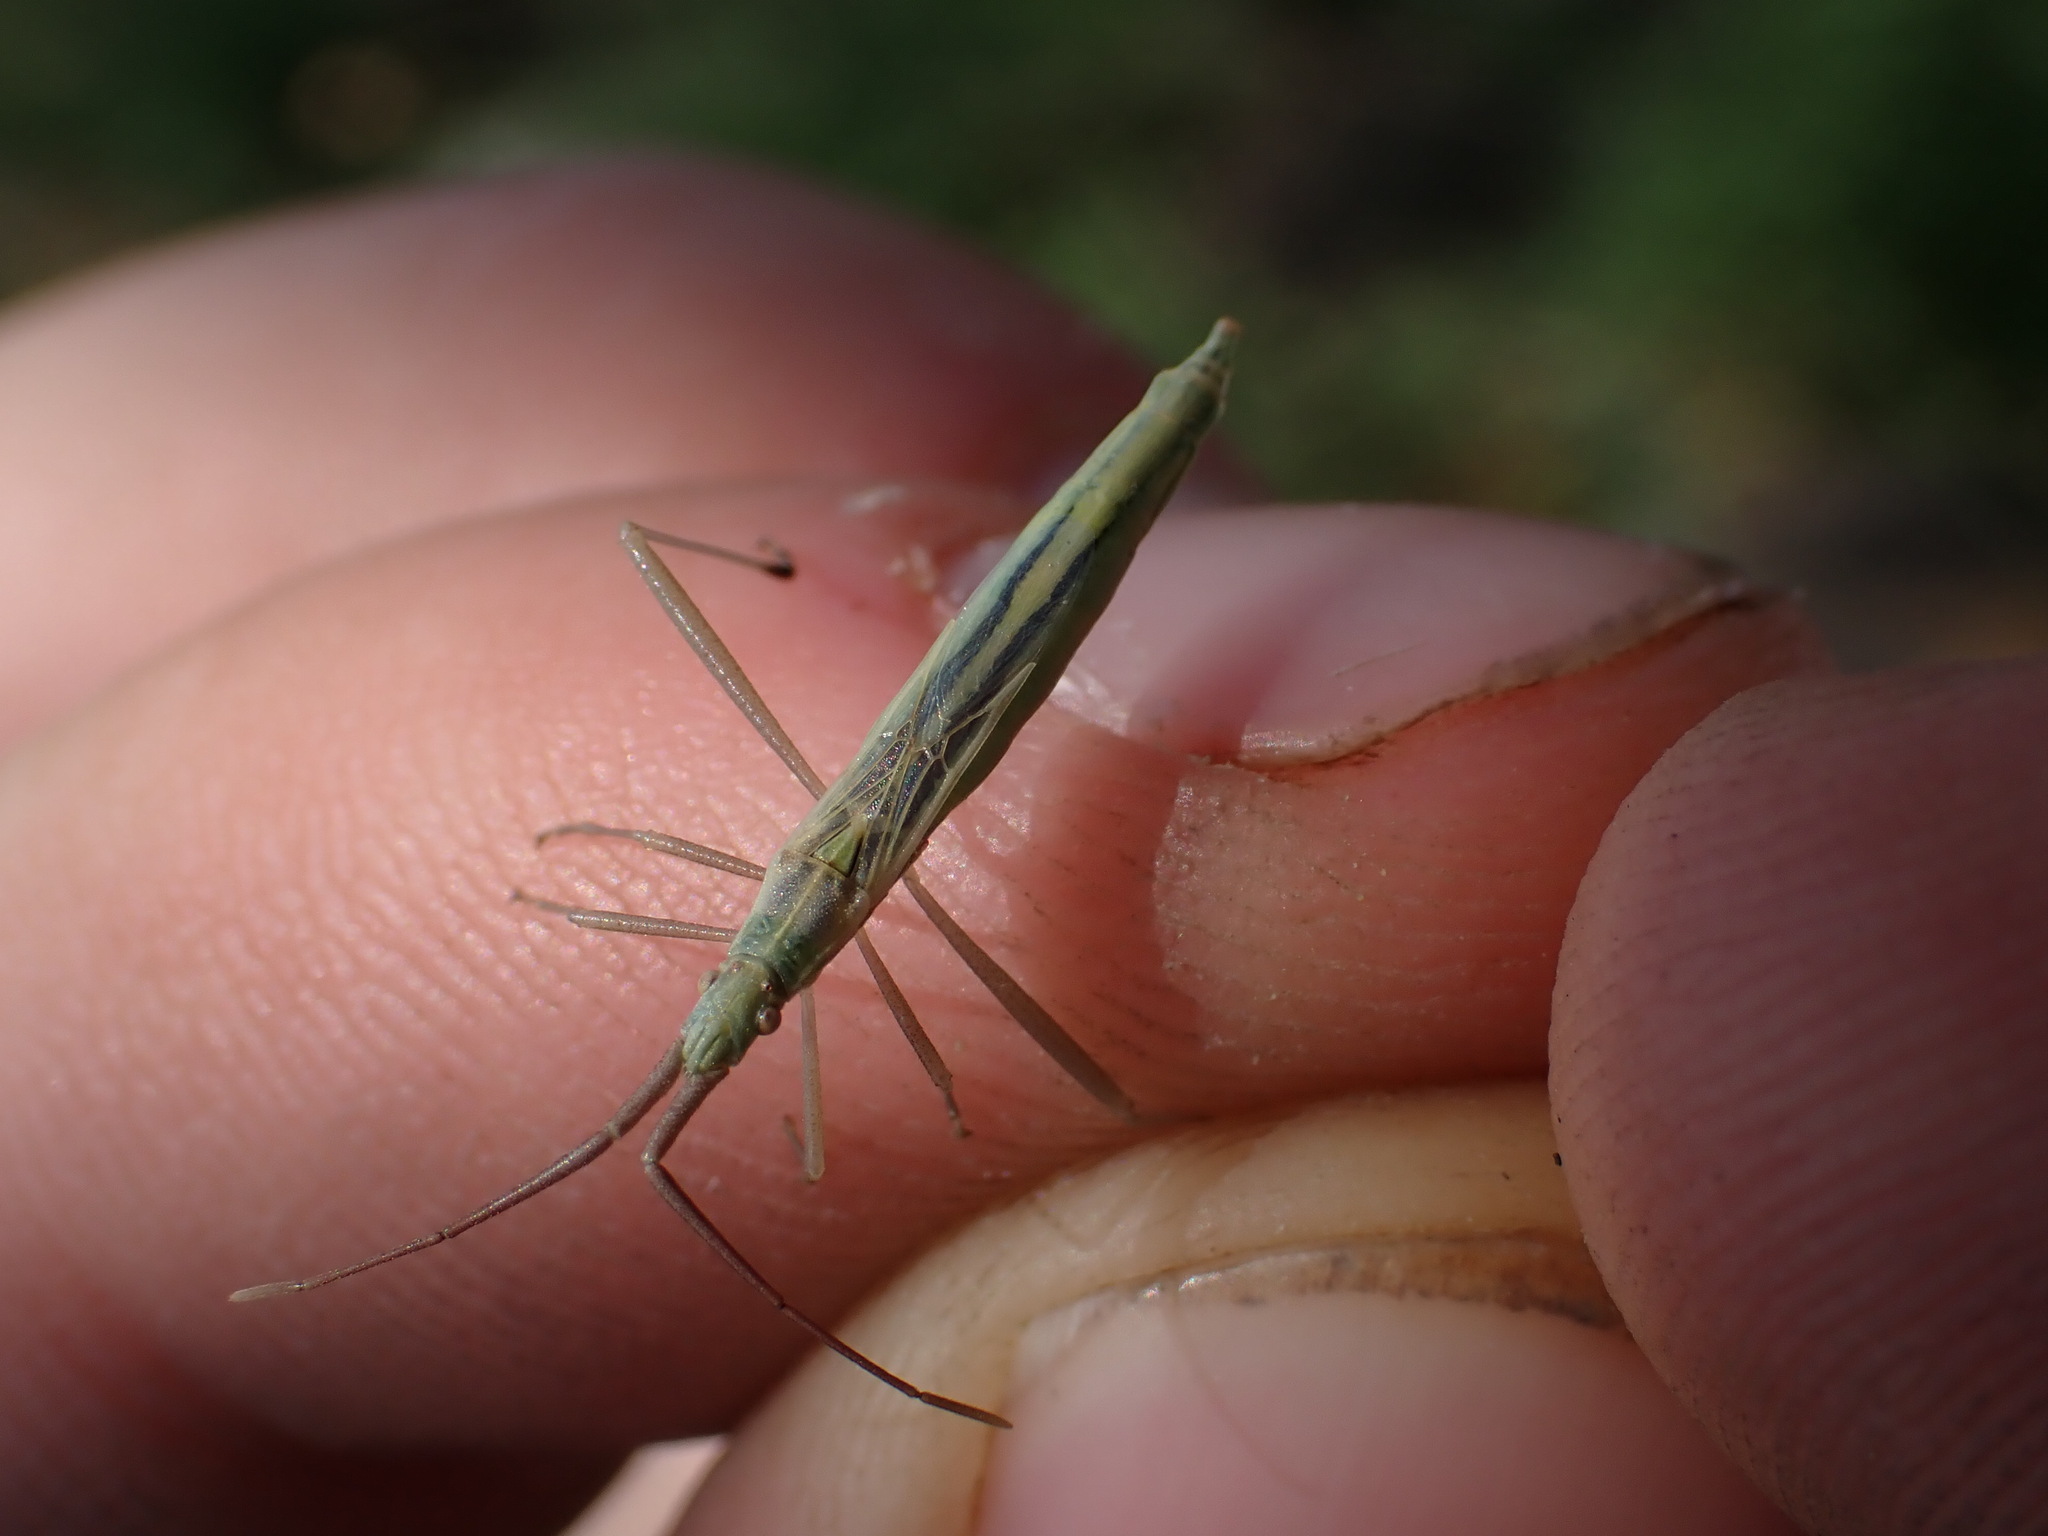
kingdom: Animalia
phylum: Arthropoda
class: Insecta
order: Hemiptera
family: Rhopalidae
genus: Chorosoma
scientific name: Chorosoma schillingii
